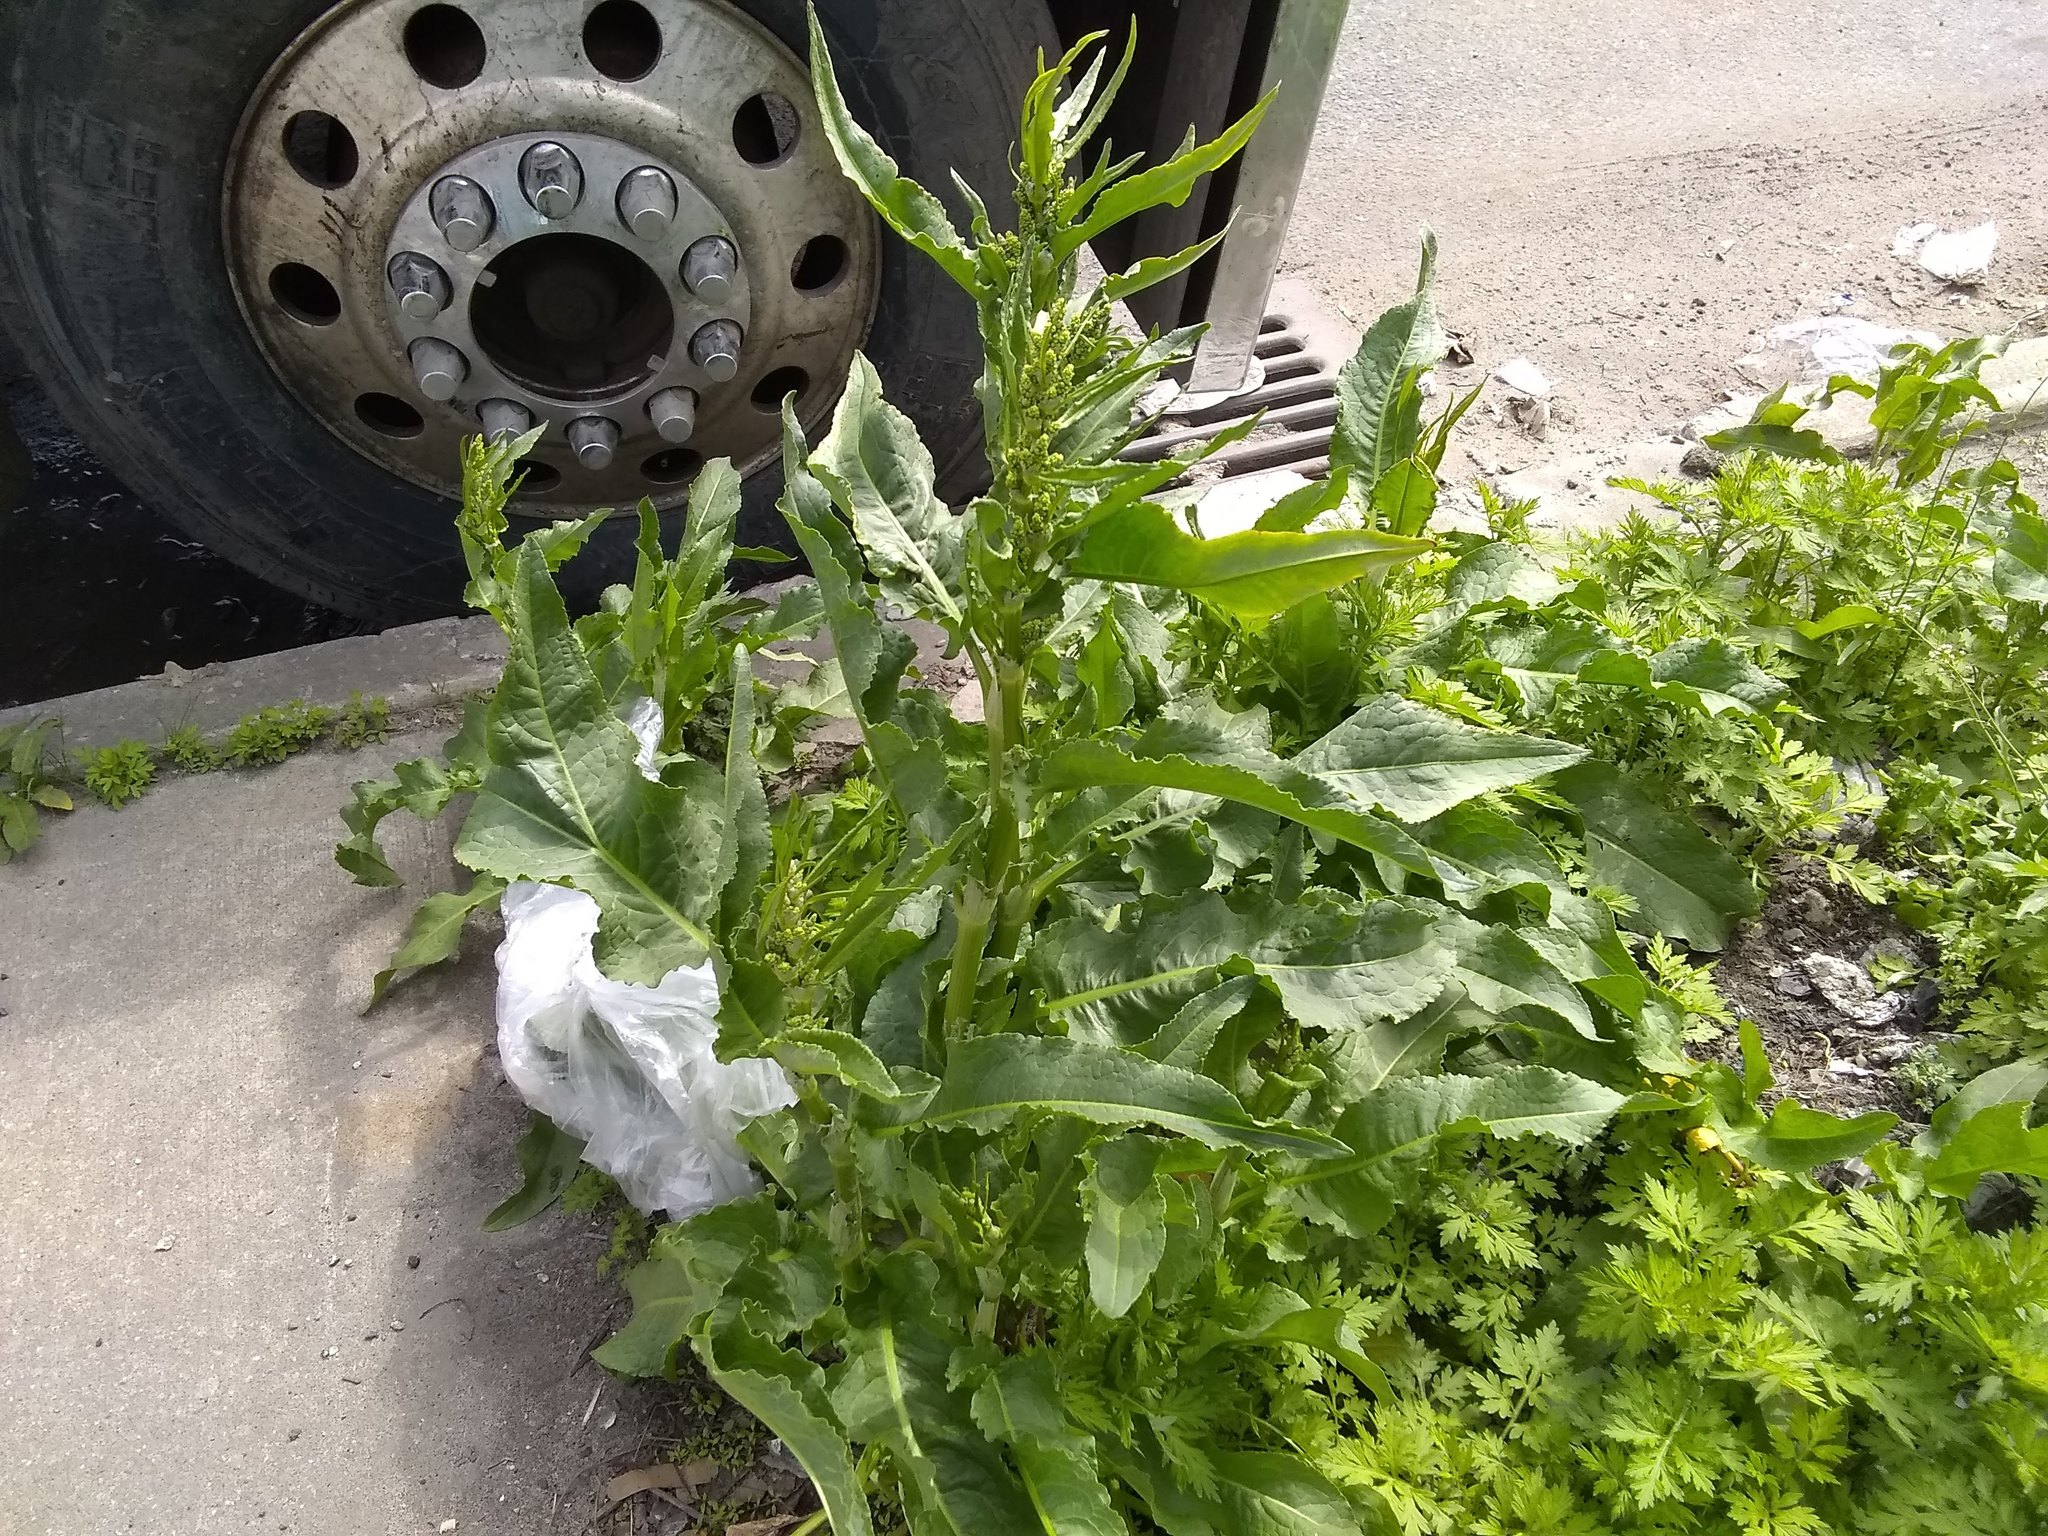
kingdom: Plantae
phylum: Tracheophyta
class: Magnoliopsida
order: Caryophyllales
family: Polygonaceae
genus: Rumex
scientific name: Rumex crispus
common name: Curled dock
